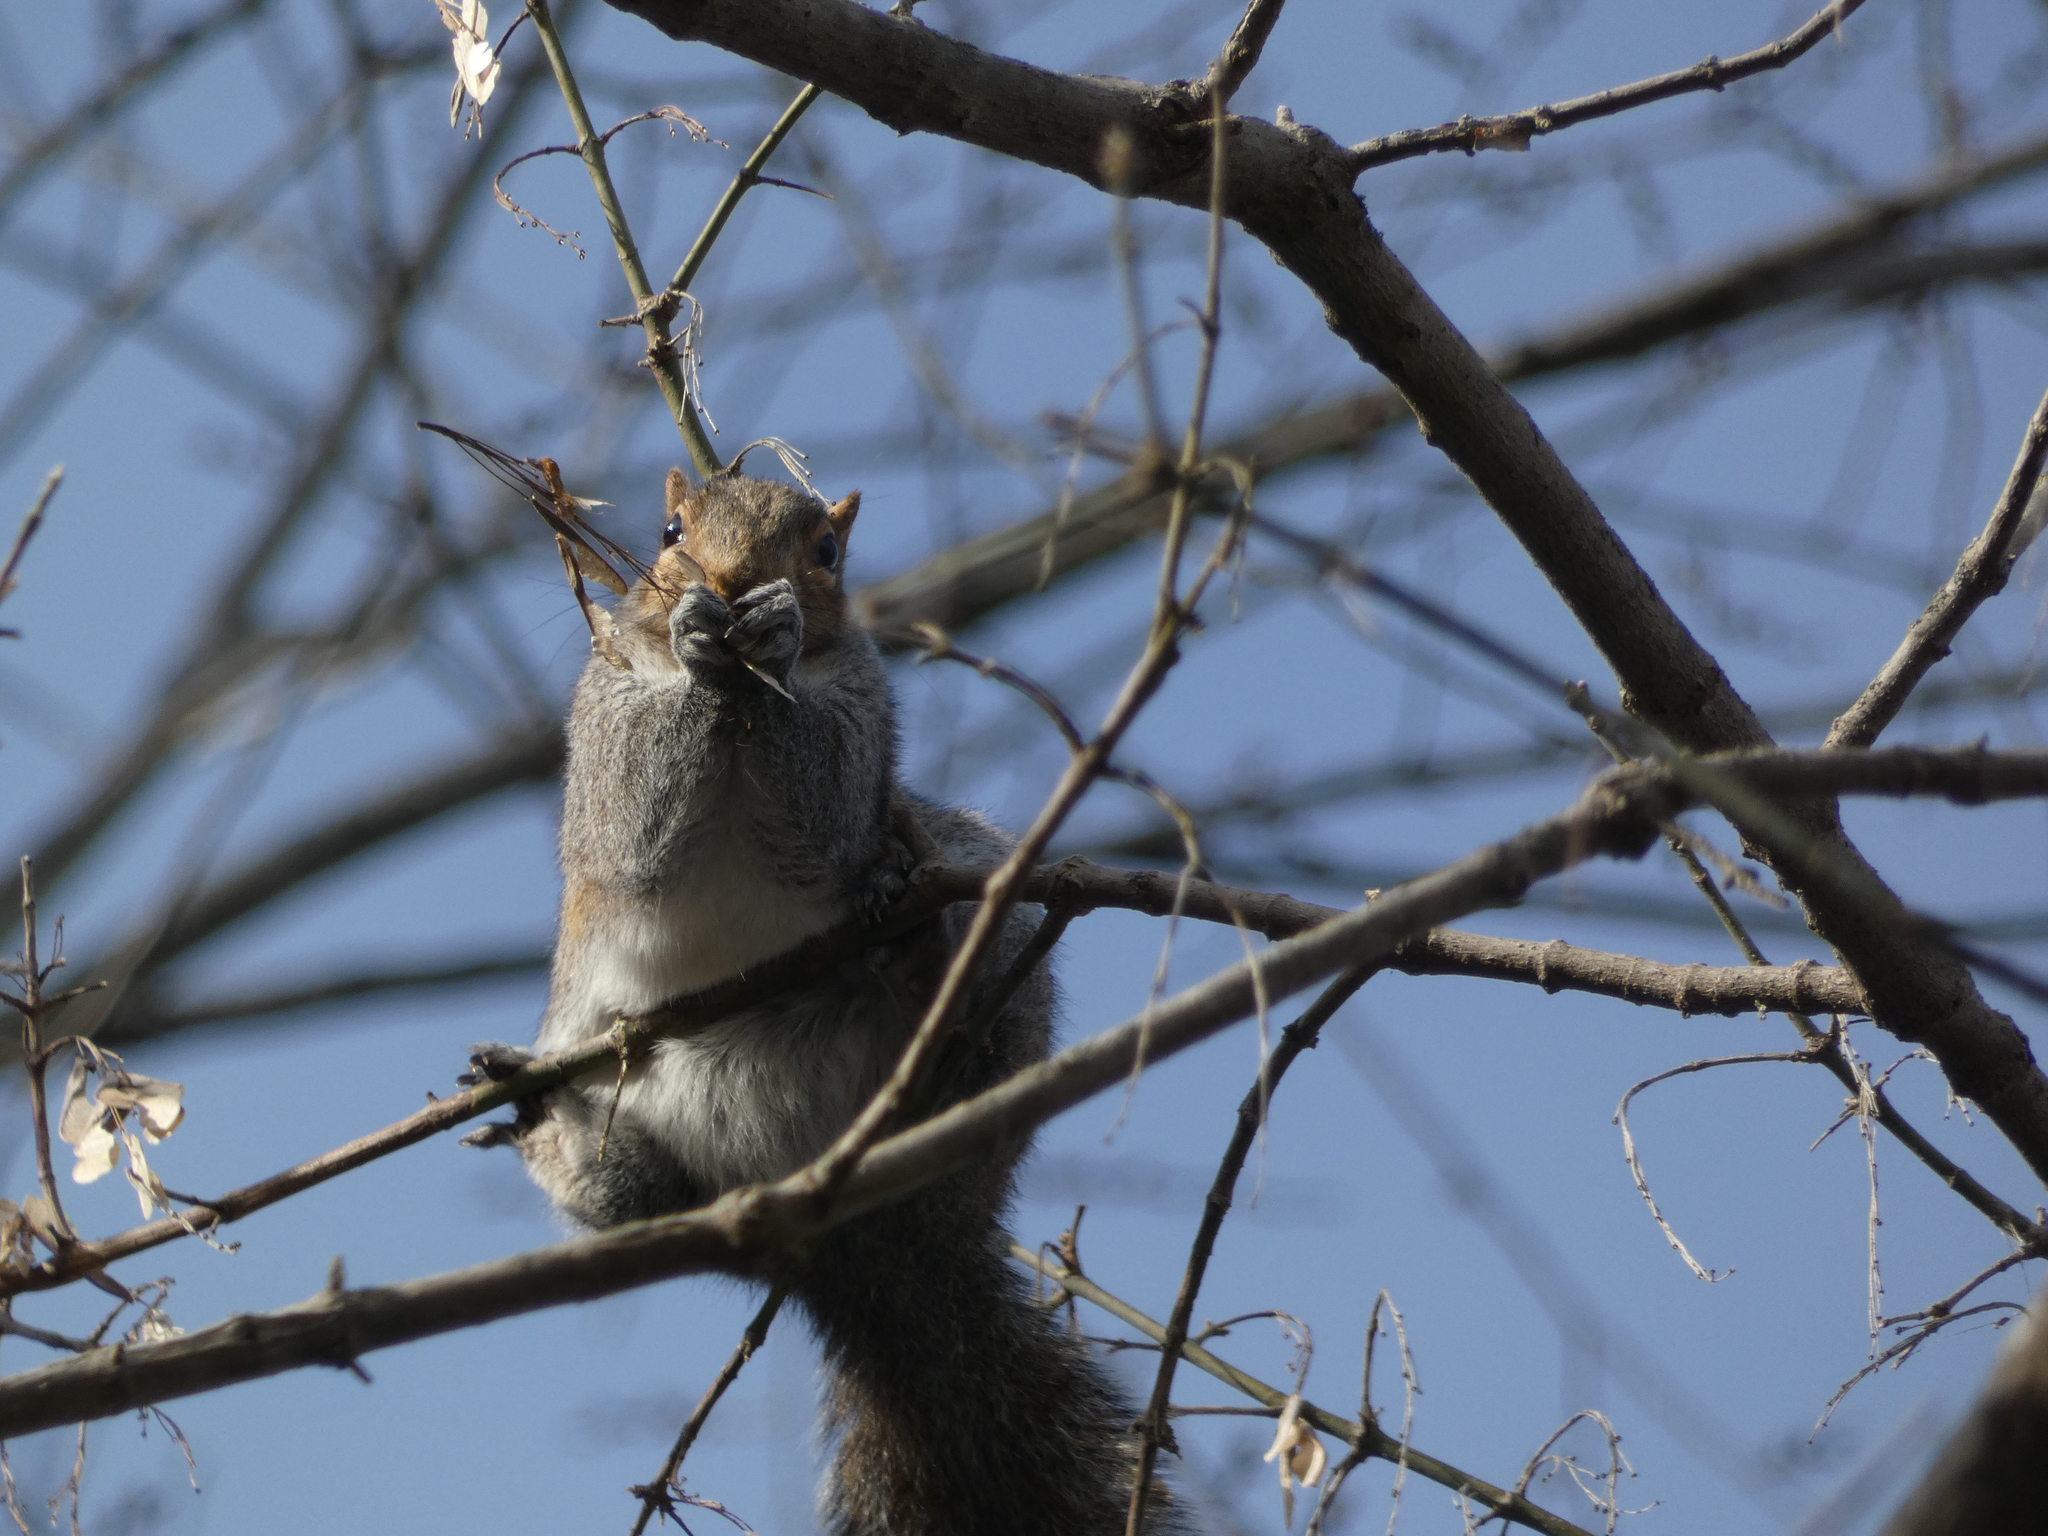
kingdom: Animalia
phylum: Chordata
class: Mammalia
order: Rodentia
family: Sciuridae
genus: Sciurus
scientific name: Sciurus carolinensis
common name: Eastern gray squirrel
